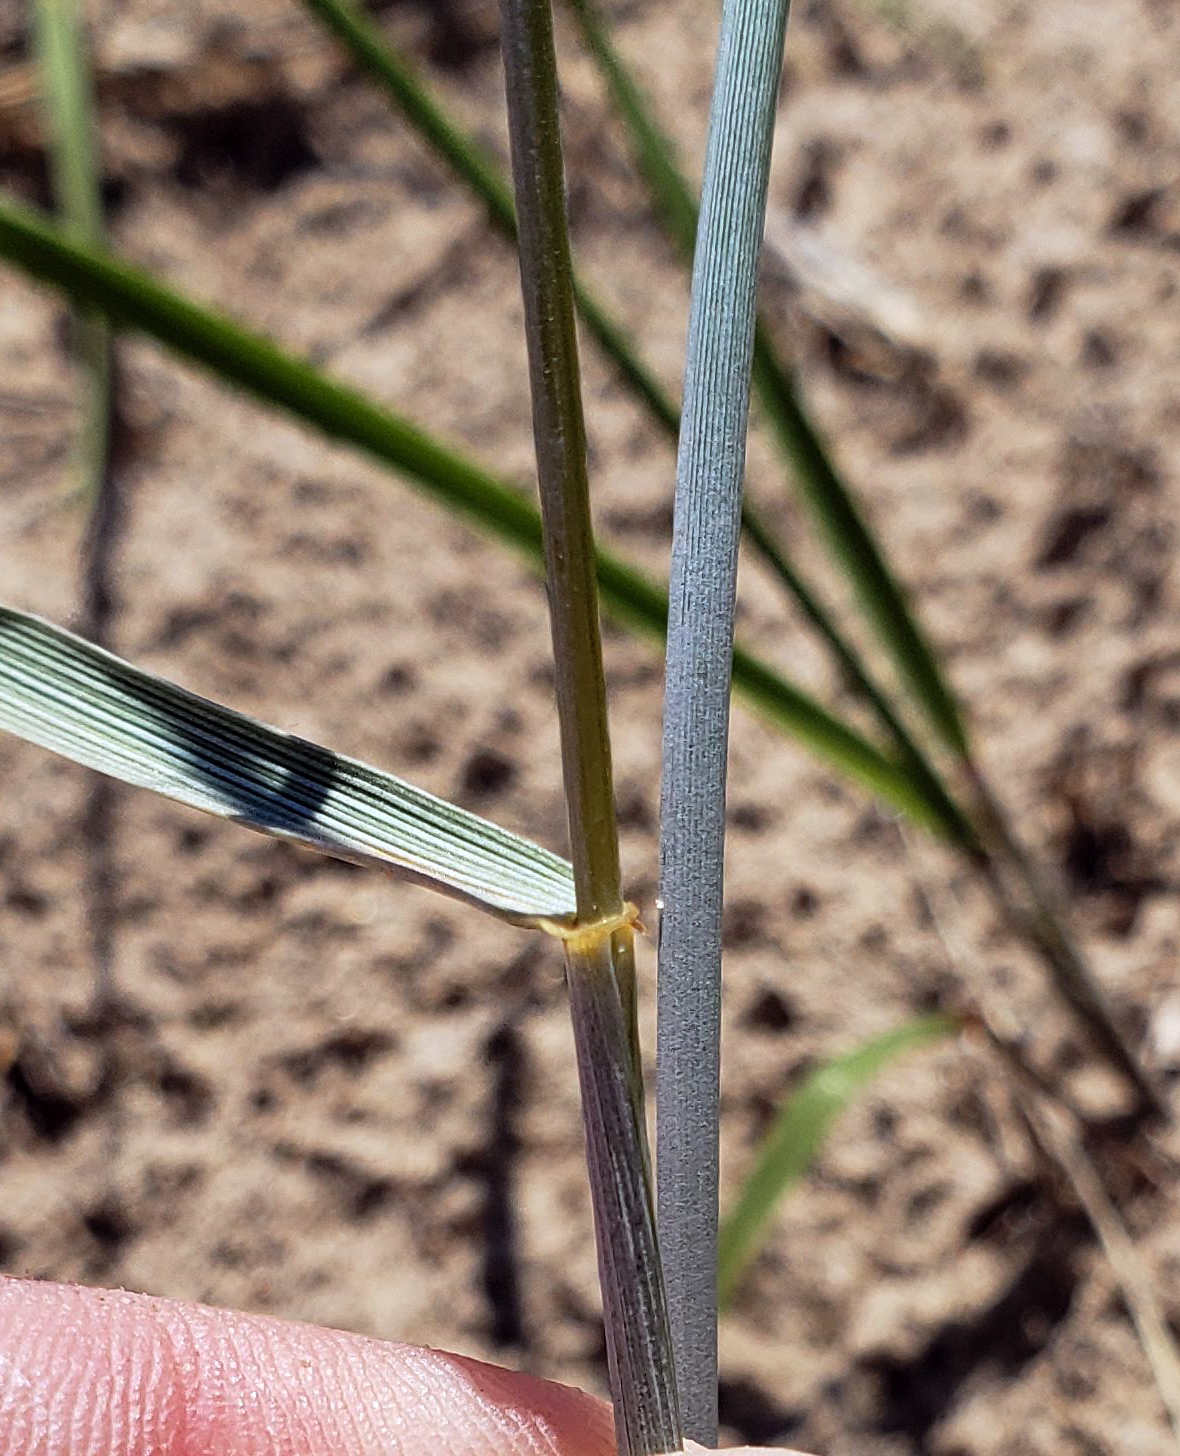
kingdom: Plantae
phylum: Tracheophyta
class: Liliopsida
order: Poales
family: Poaceae
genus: Elymus
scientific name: Elymus lanceolatus
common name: Thick-spike wheatgrass
